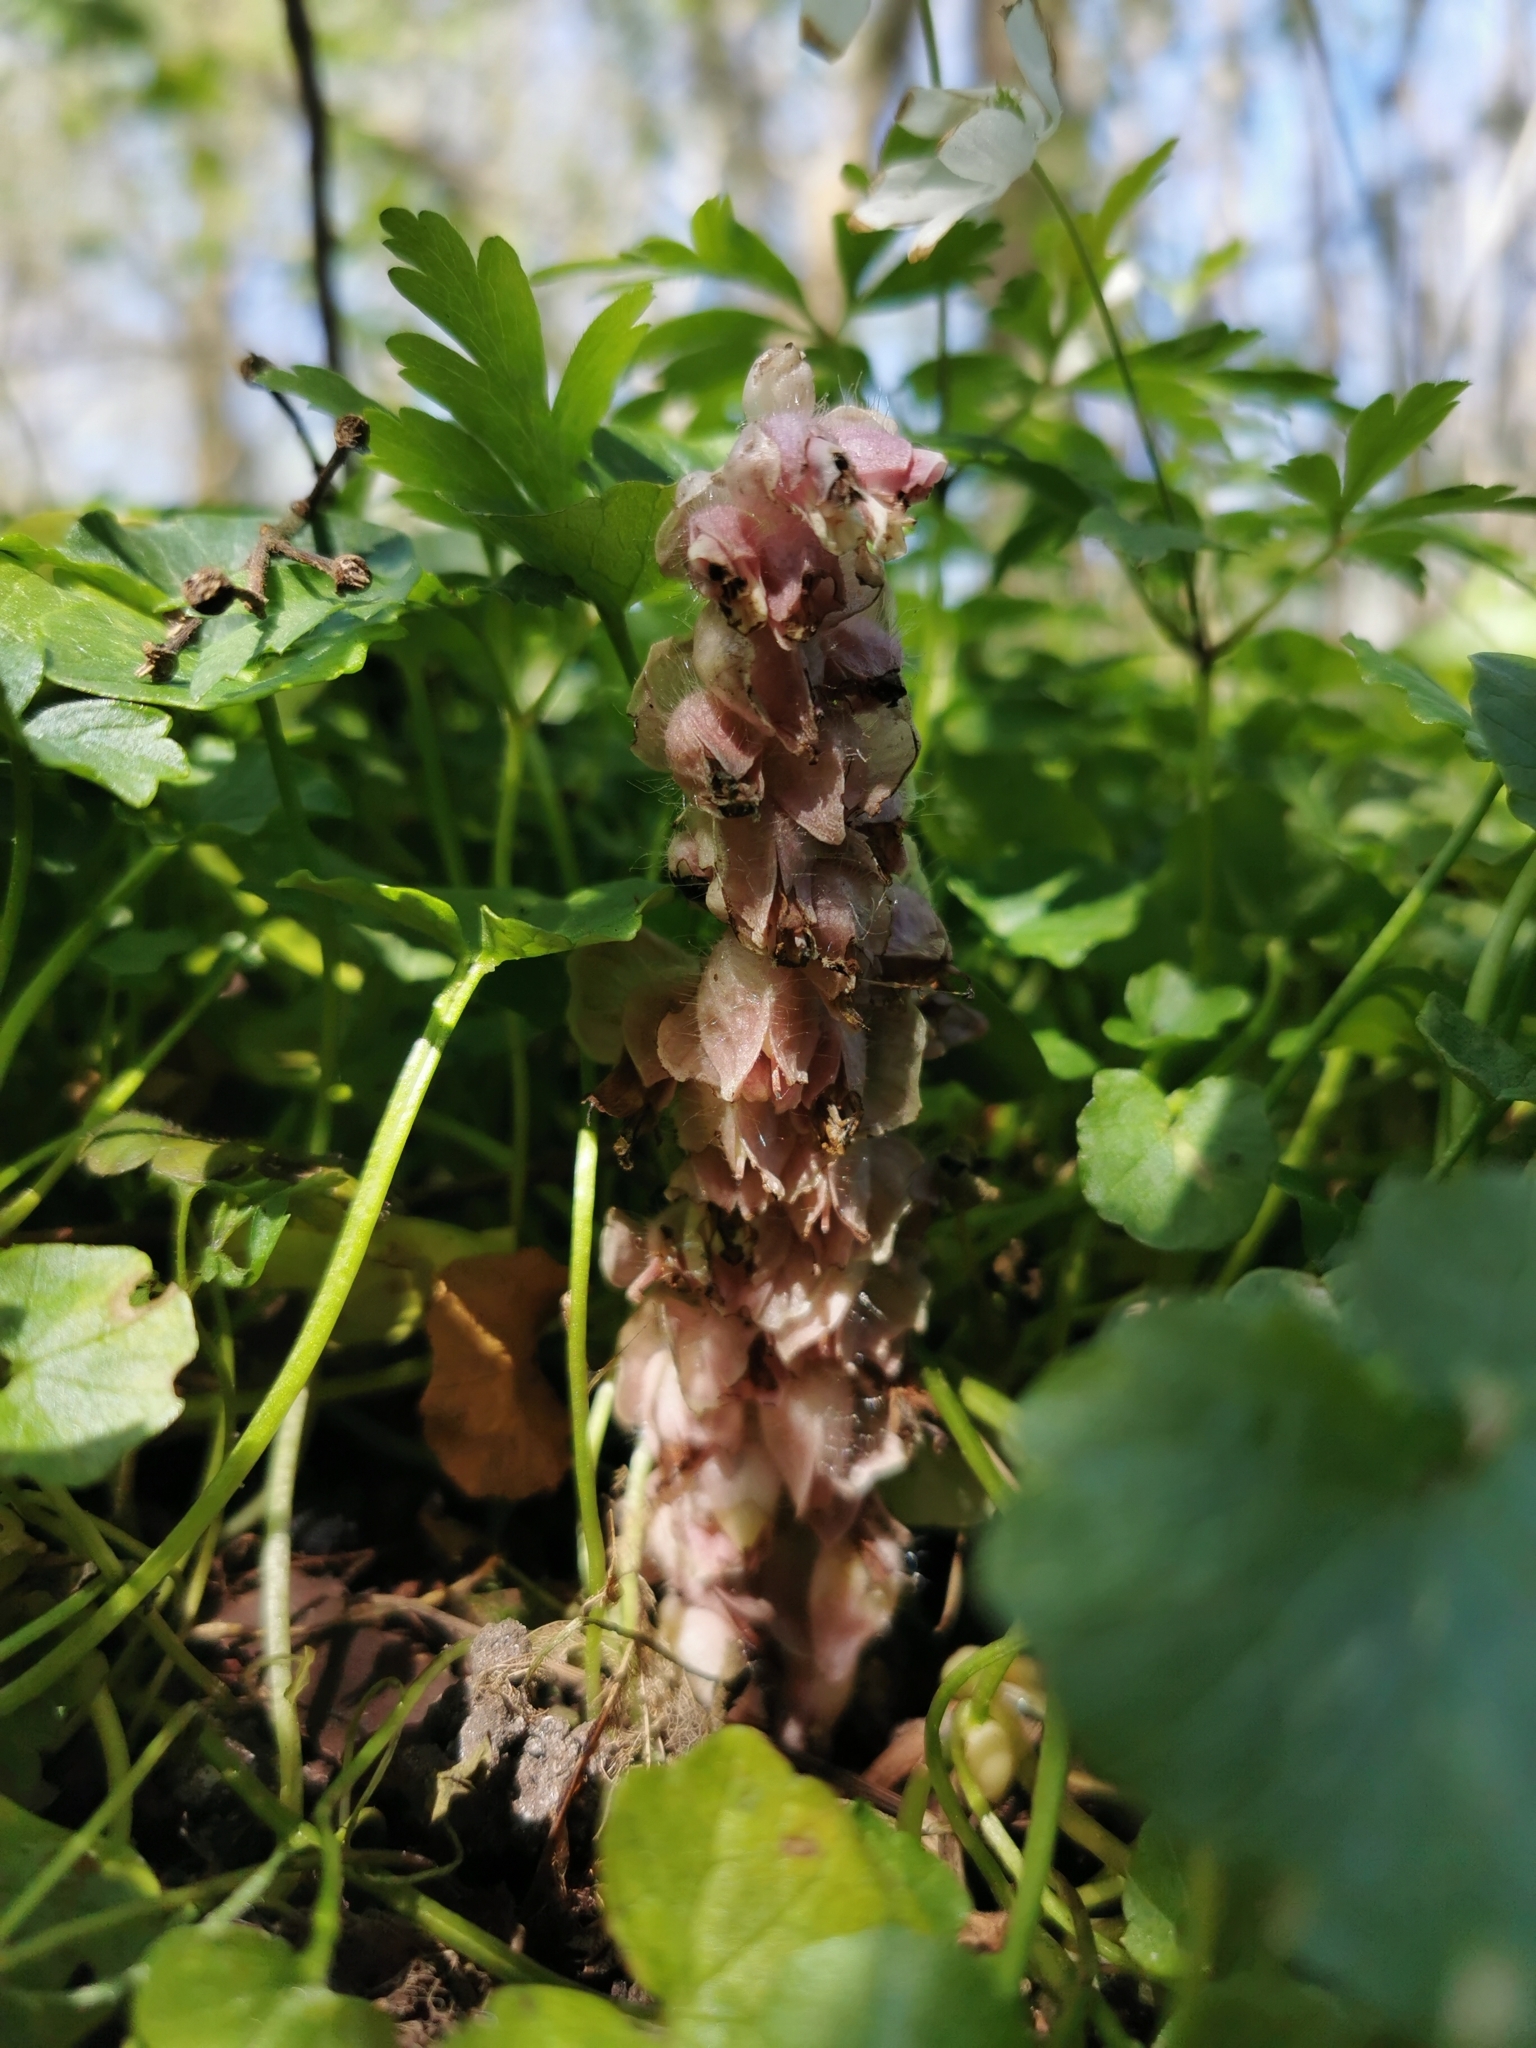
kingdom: Plantae
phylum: Tracheophyta
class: Magnoliopsida
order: Lamiales
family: Orobanchaceae
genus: Lathraea
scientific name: Lathraea squamaria
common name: Toothwort
